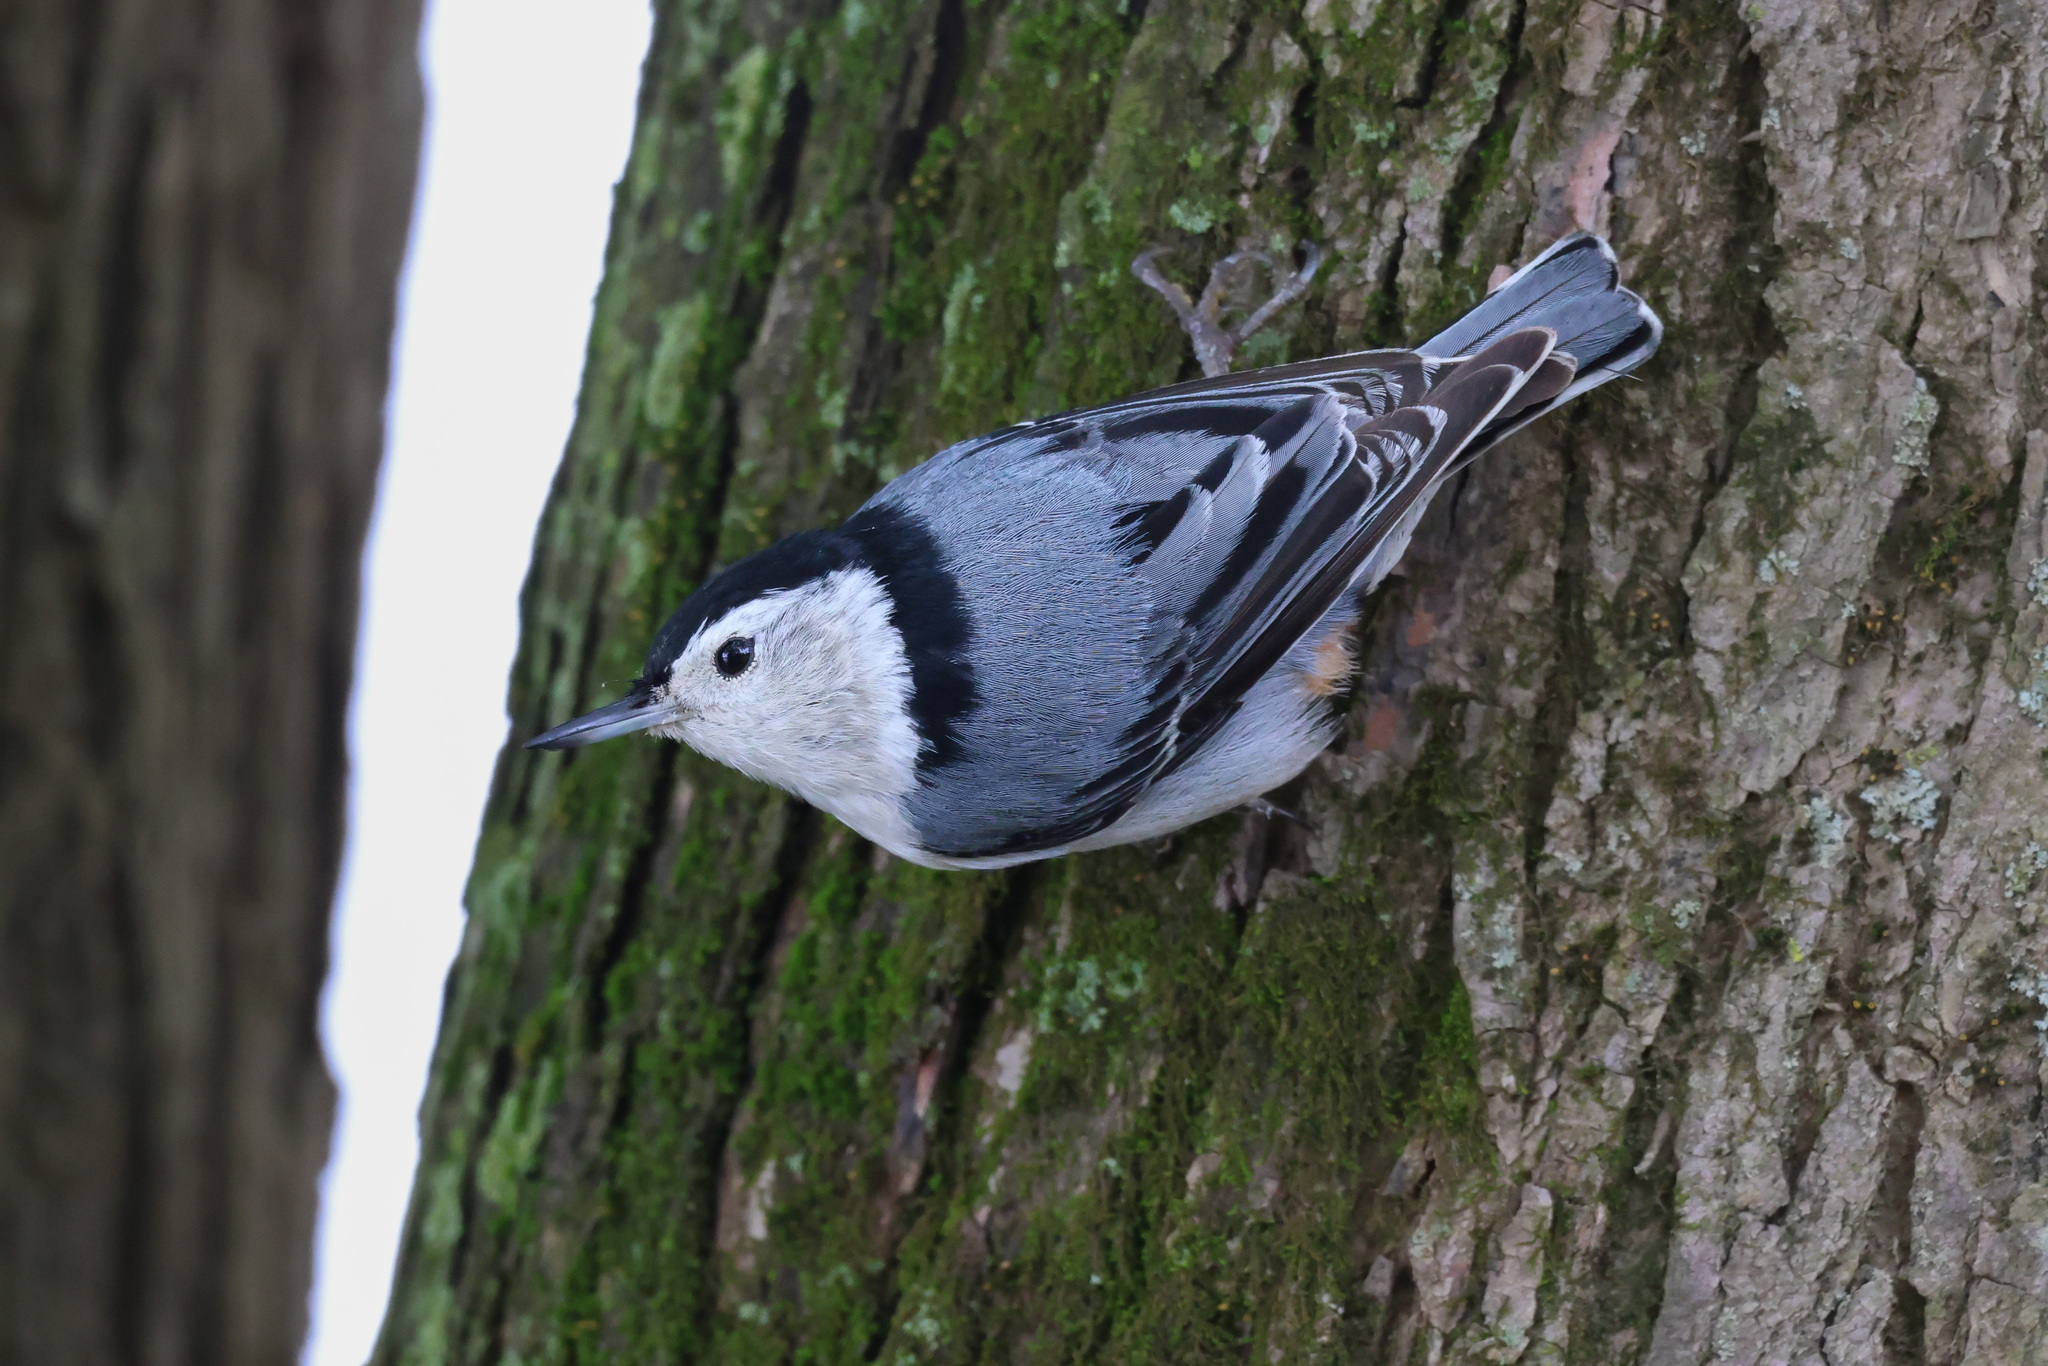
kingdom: Animalia
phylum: Chordata
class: Aves
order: Passeriformes
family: Sittidae
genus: Sitta
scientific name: Sitta carolinensis
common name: White-breasted nuthatch
